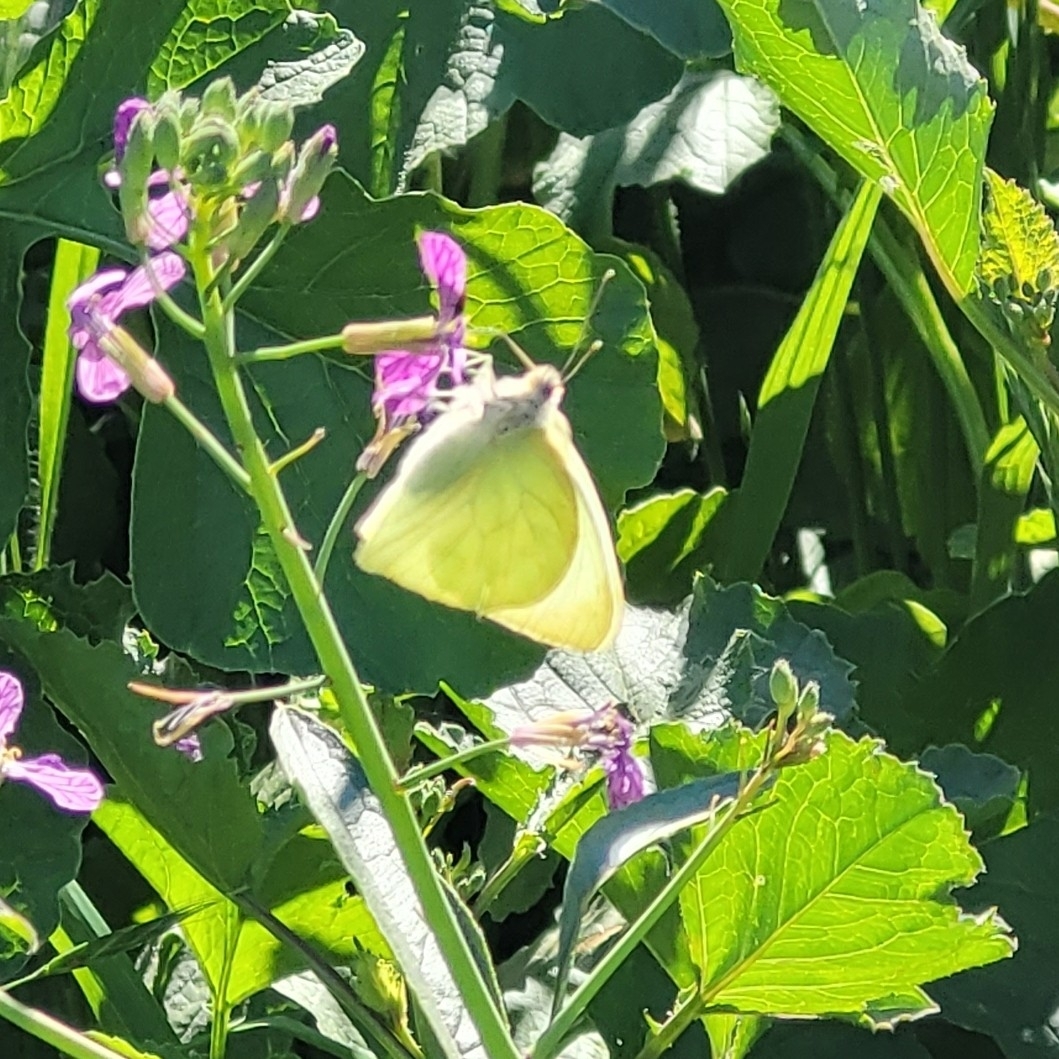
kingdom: Animalia
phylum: Arthropoda
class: Insecta
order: Lepidoptera
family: Pieridae
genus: Mathania
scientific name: Mathania leucothea
